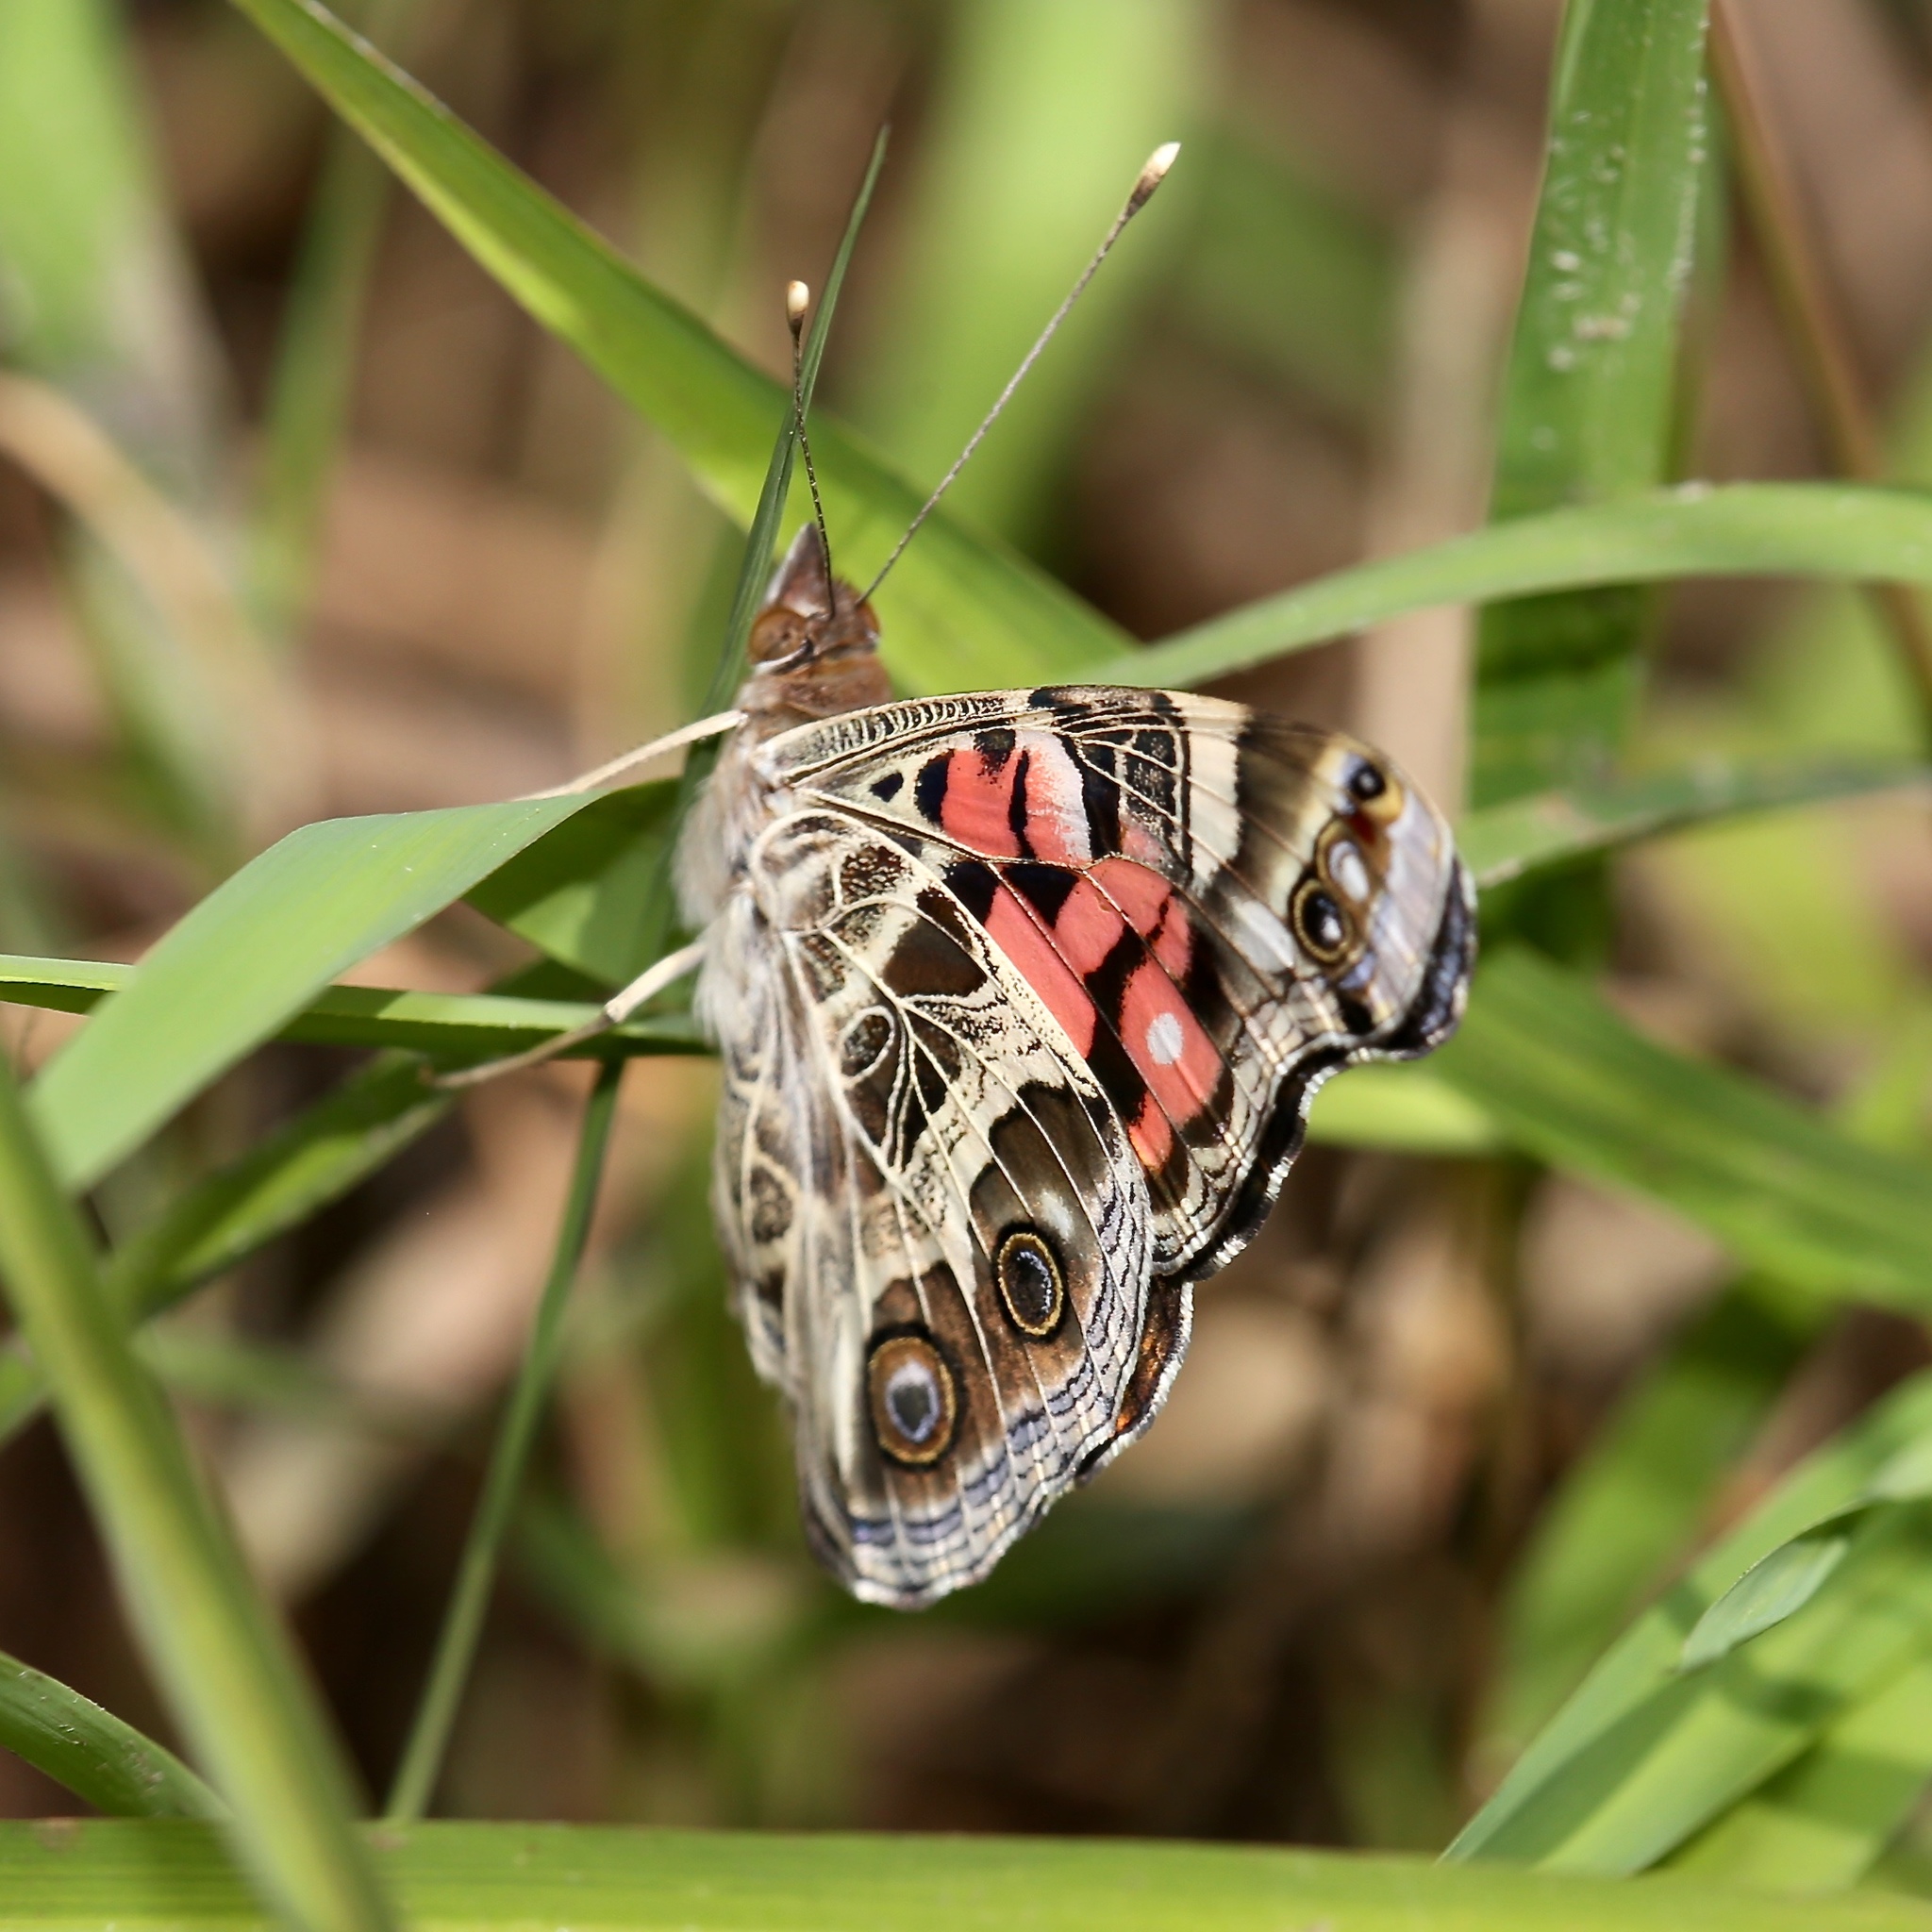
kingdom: Animalia
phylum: Arthropoda
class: Insecta
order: Lepidoptera
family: Nymphalidae
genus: Vanessa
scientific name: Vanessa virginiensis
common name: American lady
